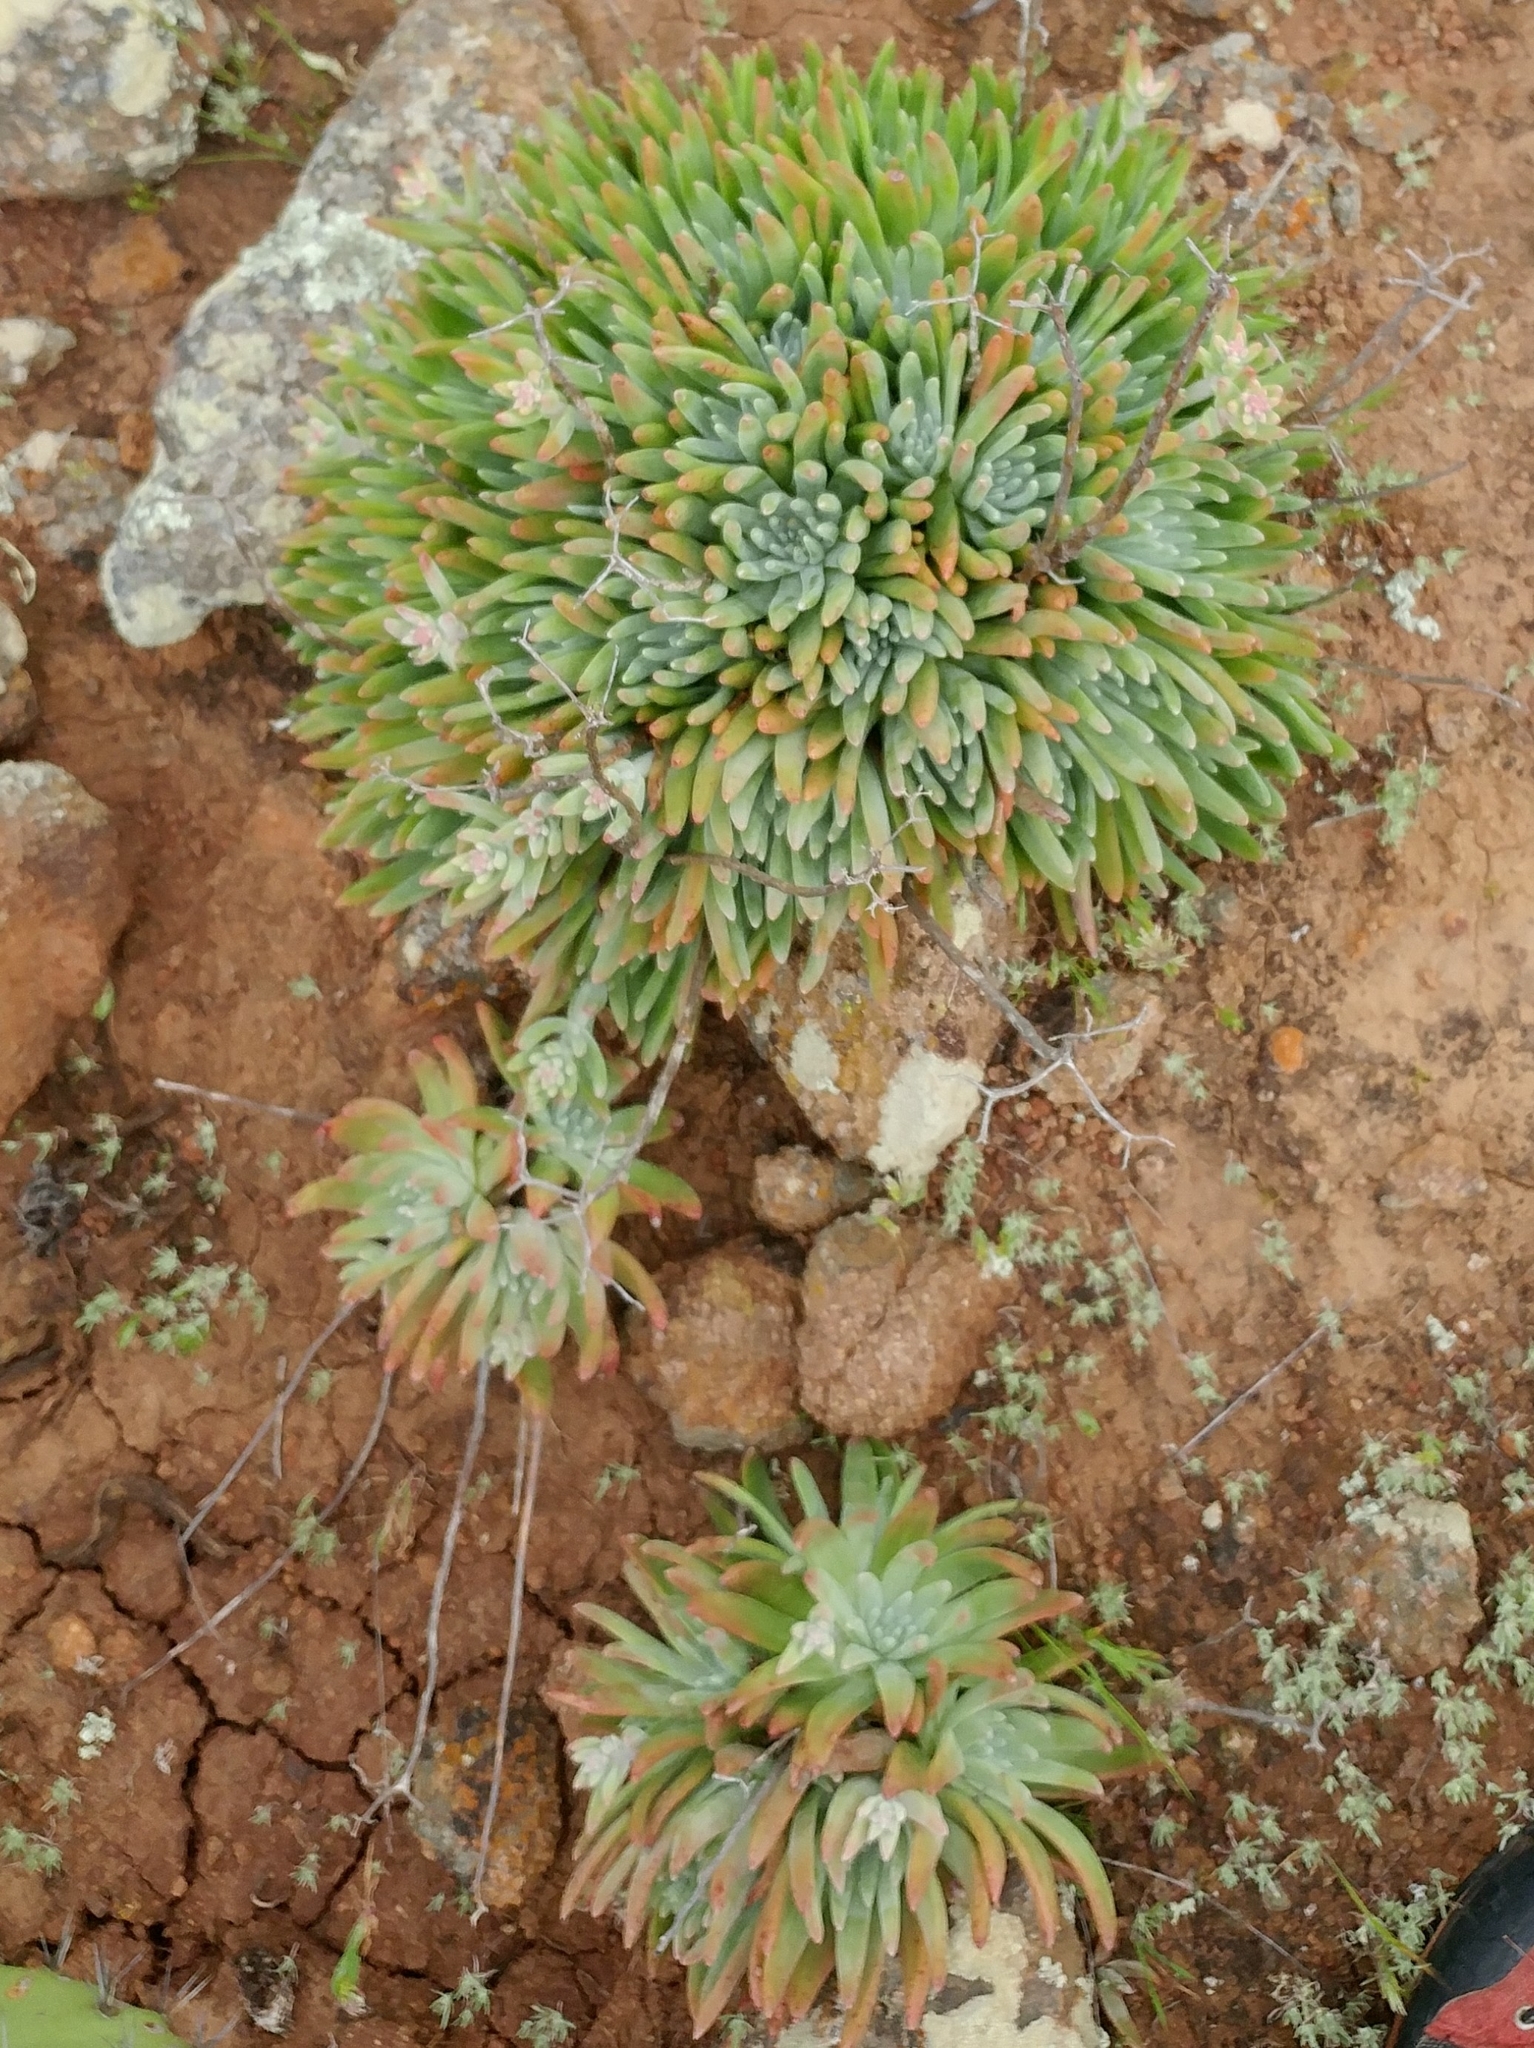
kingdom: Plantae
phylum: Tracheophyta
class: Magnoliopsida
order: Saxifragales
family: Crassulaceae
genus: Dudleya
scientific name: Dudleya virens
